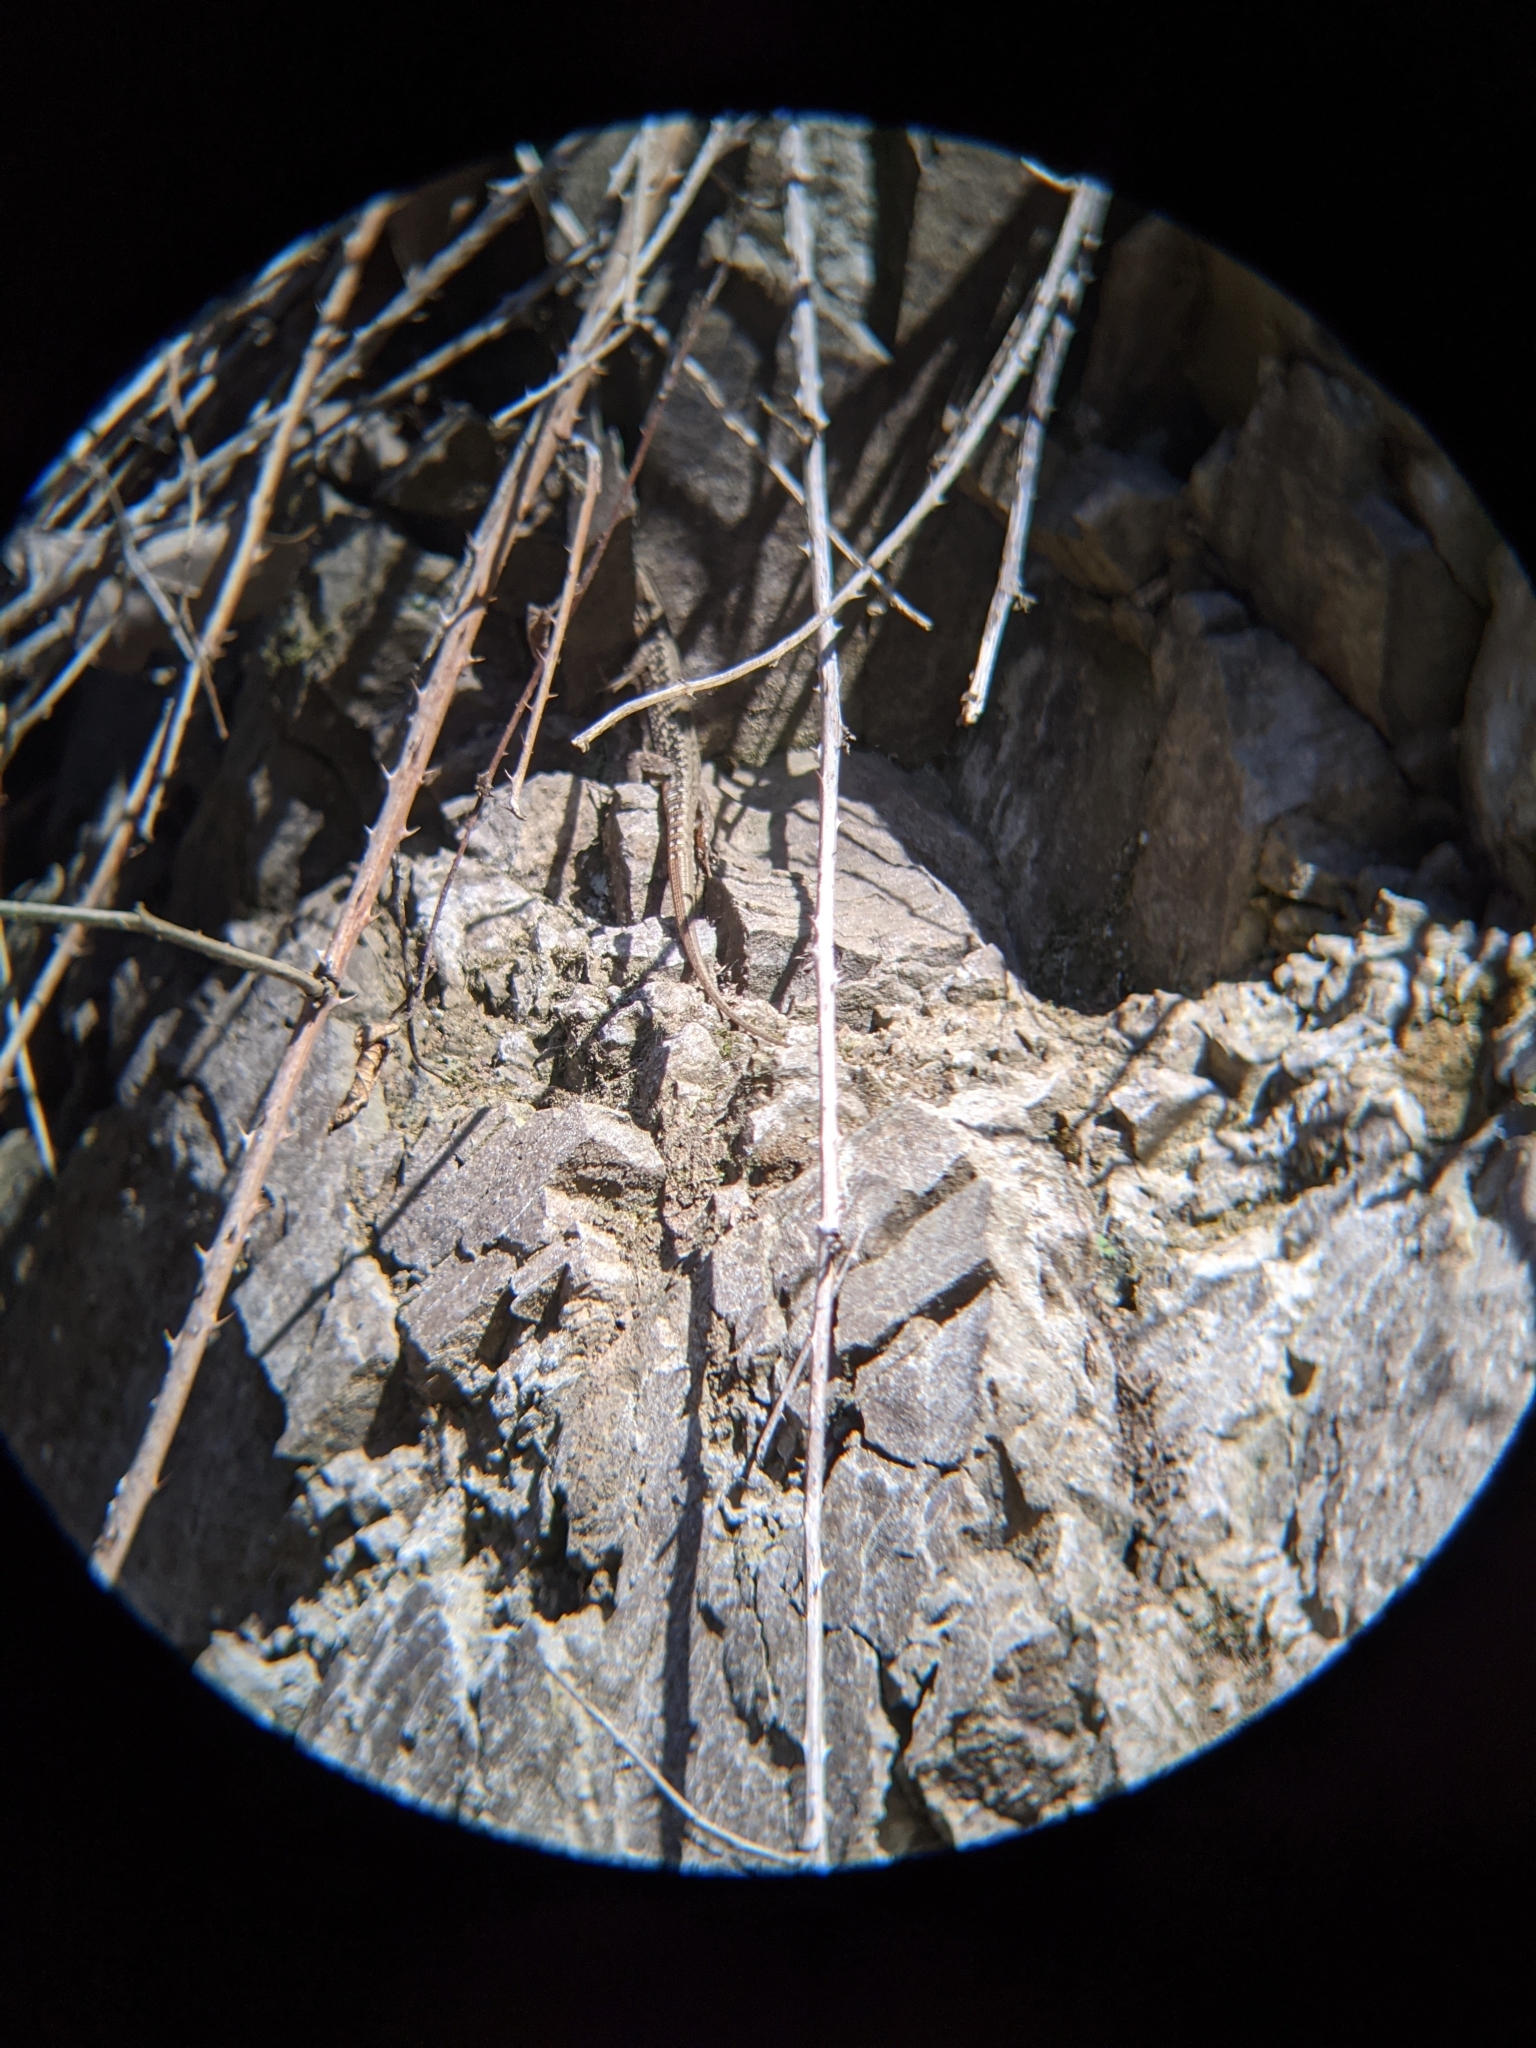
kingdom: Animalia
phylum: Chordata
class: Squamata
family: Lacertidae
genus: Podarcis
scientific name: Podarcis muralis
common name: Common wall lizard
